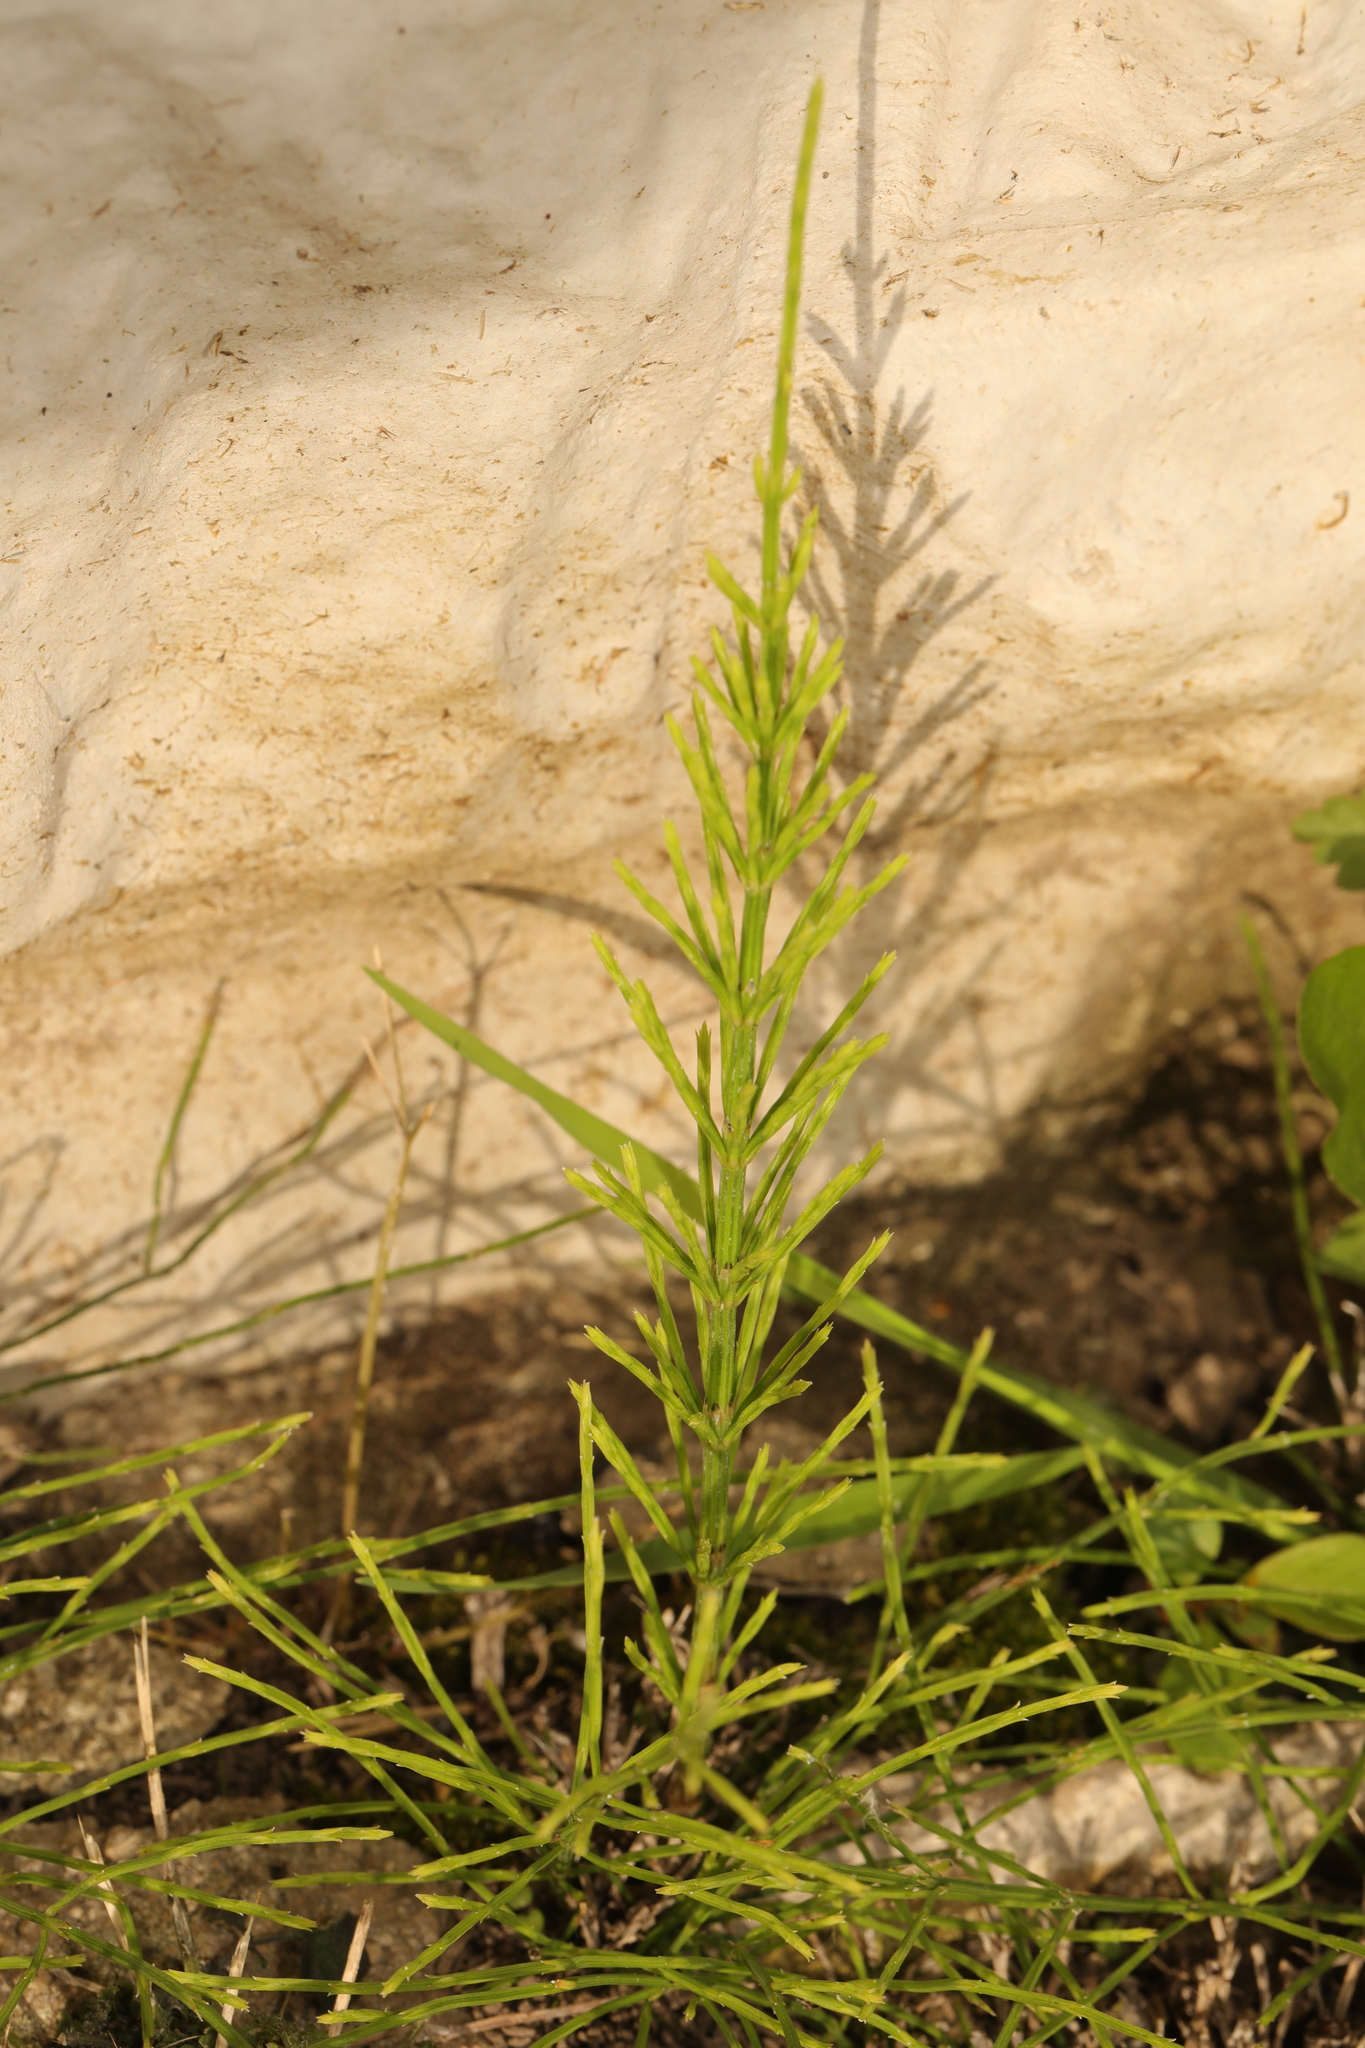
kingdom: Plantae
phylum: Tracheophyta
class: Polypodiopsida
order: Equisetales
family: Equisetaceae
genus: Equisetum
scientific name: Equisetum arvense
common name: Field horsetail
